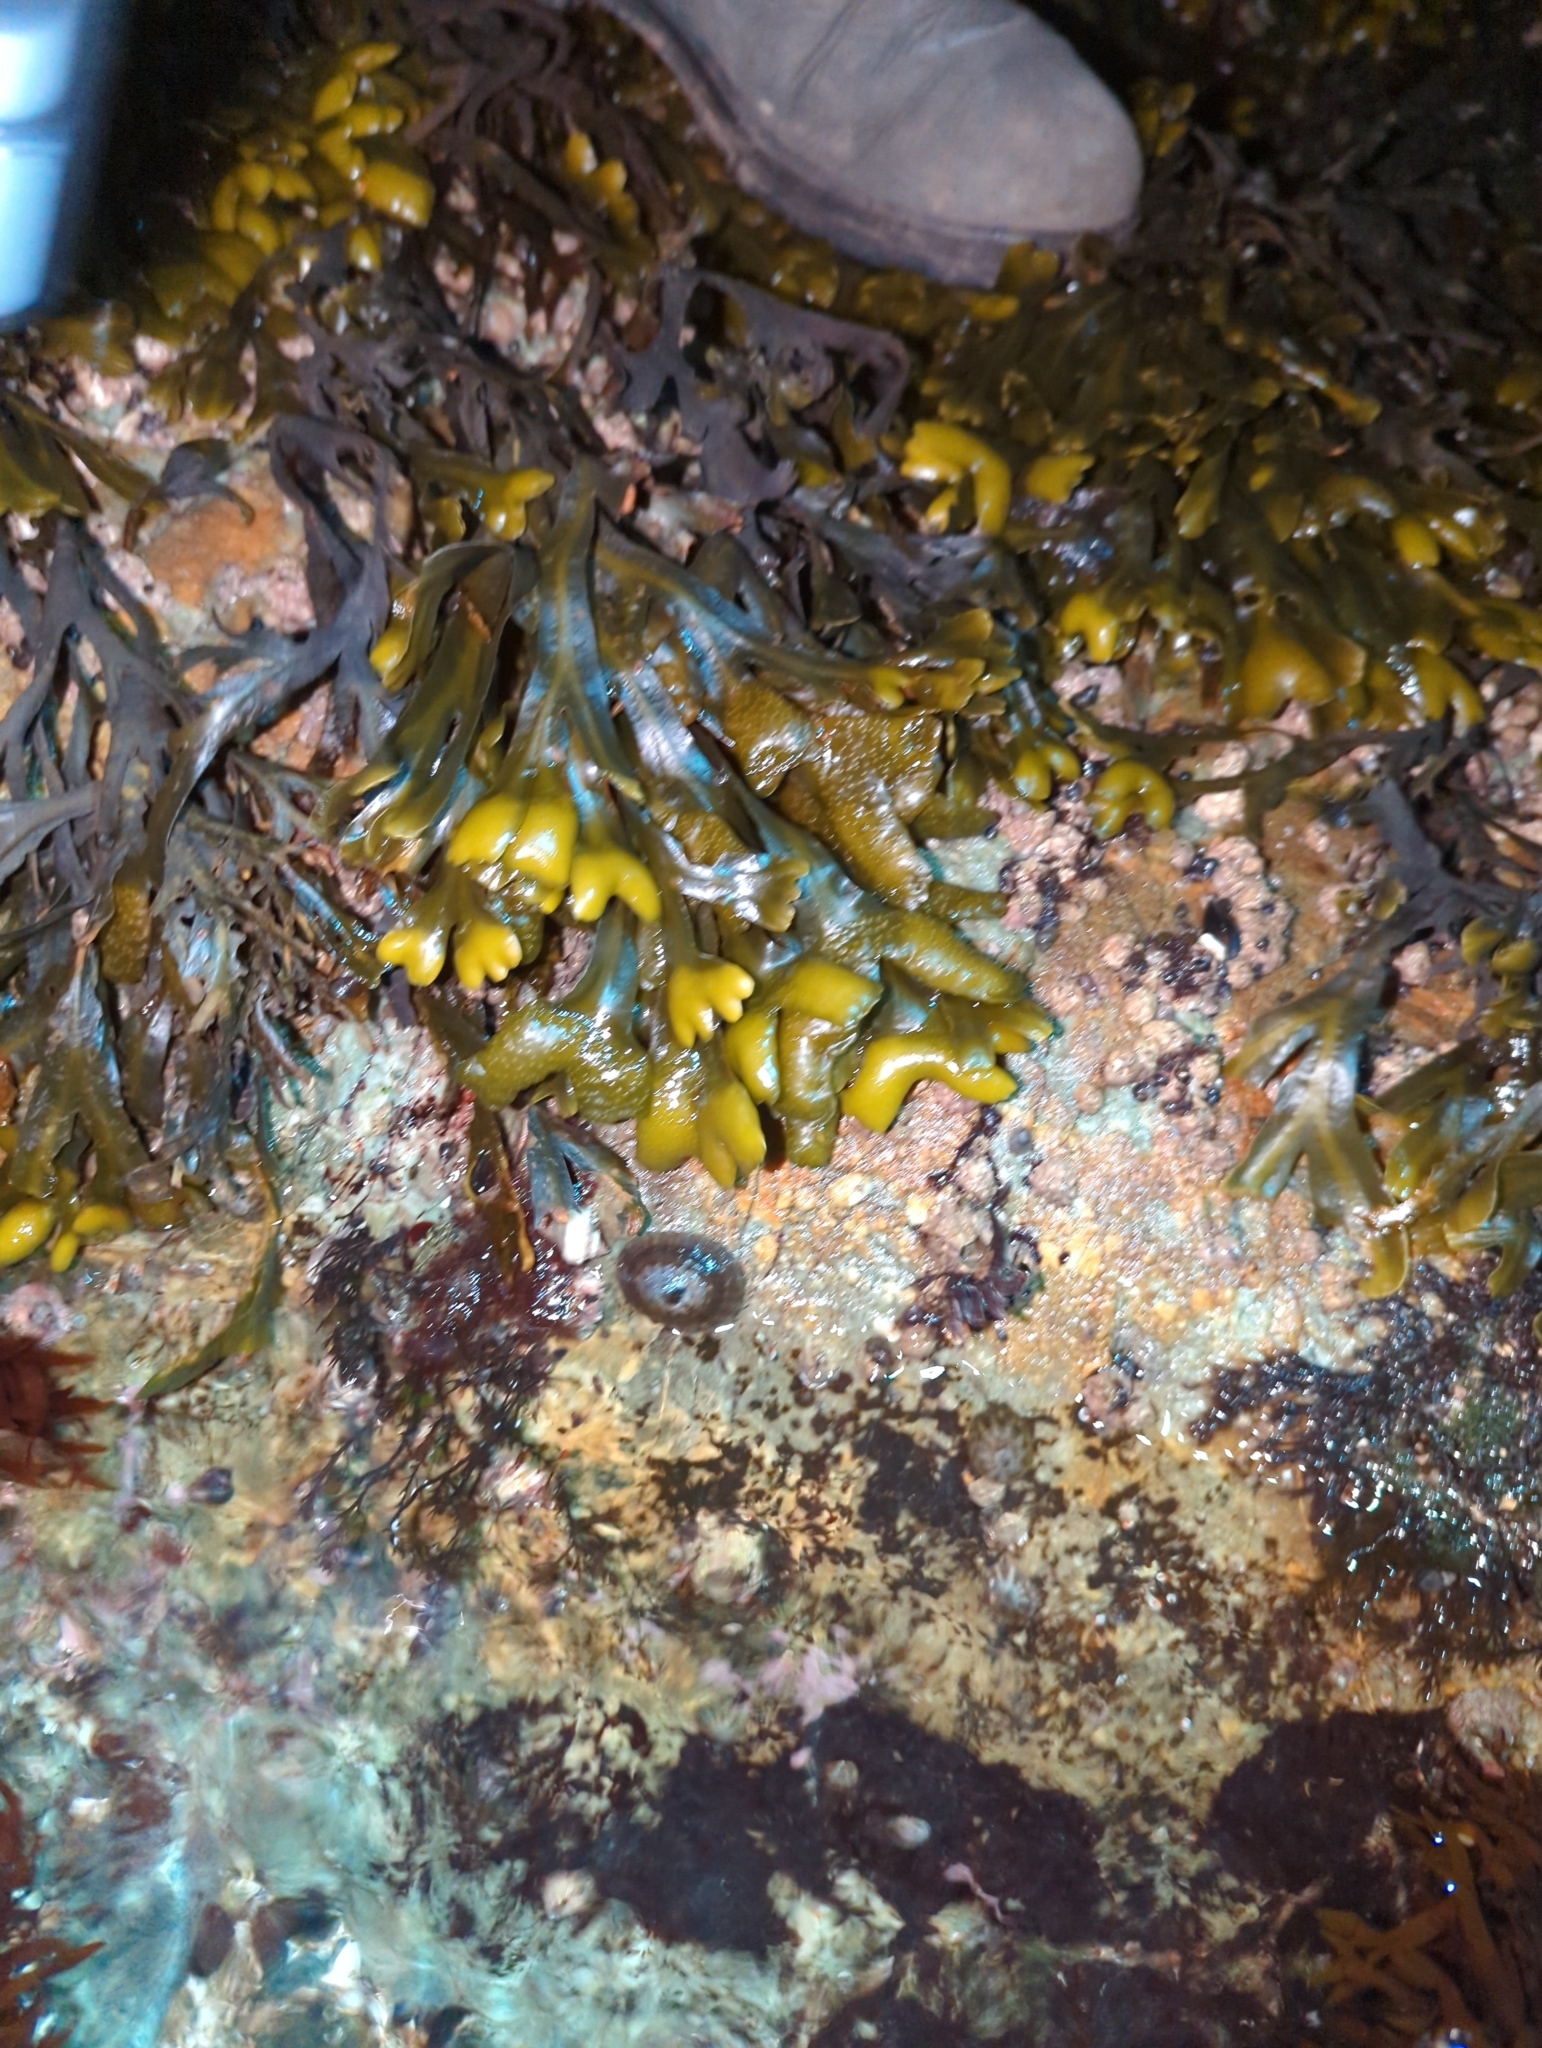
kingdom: Chromista
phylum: Ochrophyta
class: Phaeophyceae
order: Fucales
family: Fucaceae
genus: Fucus
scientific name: Fucus distichus
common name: Rockweed
